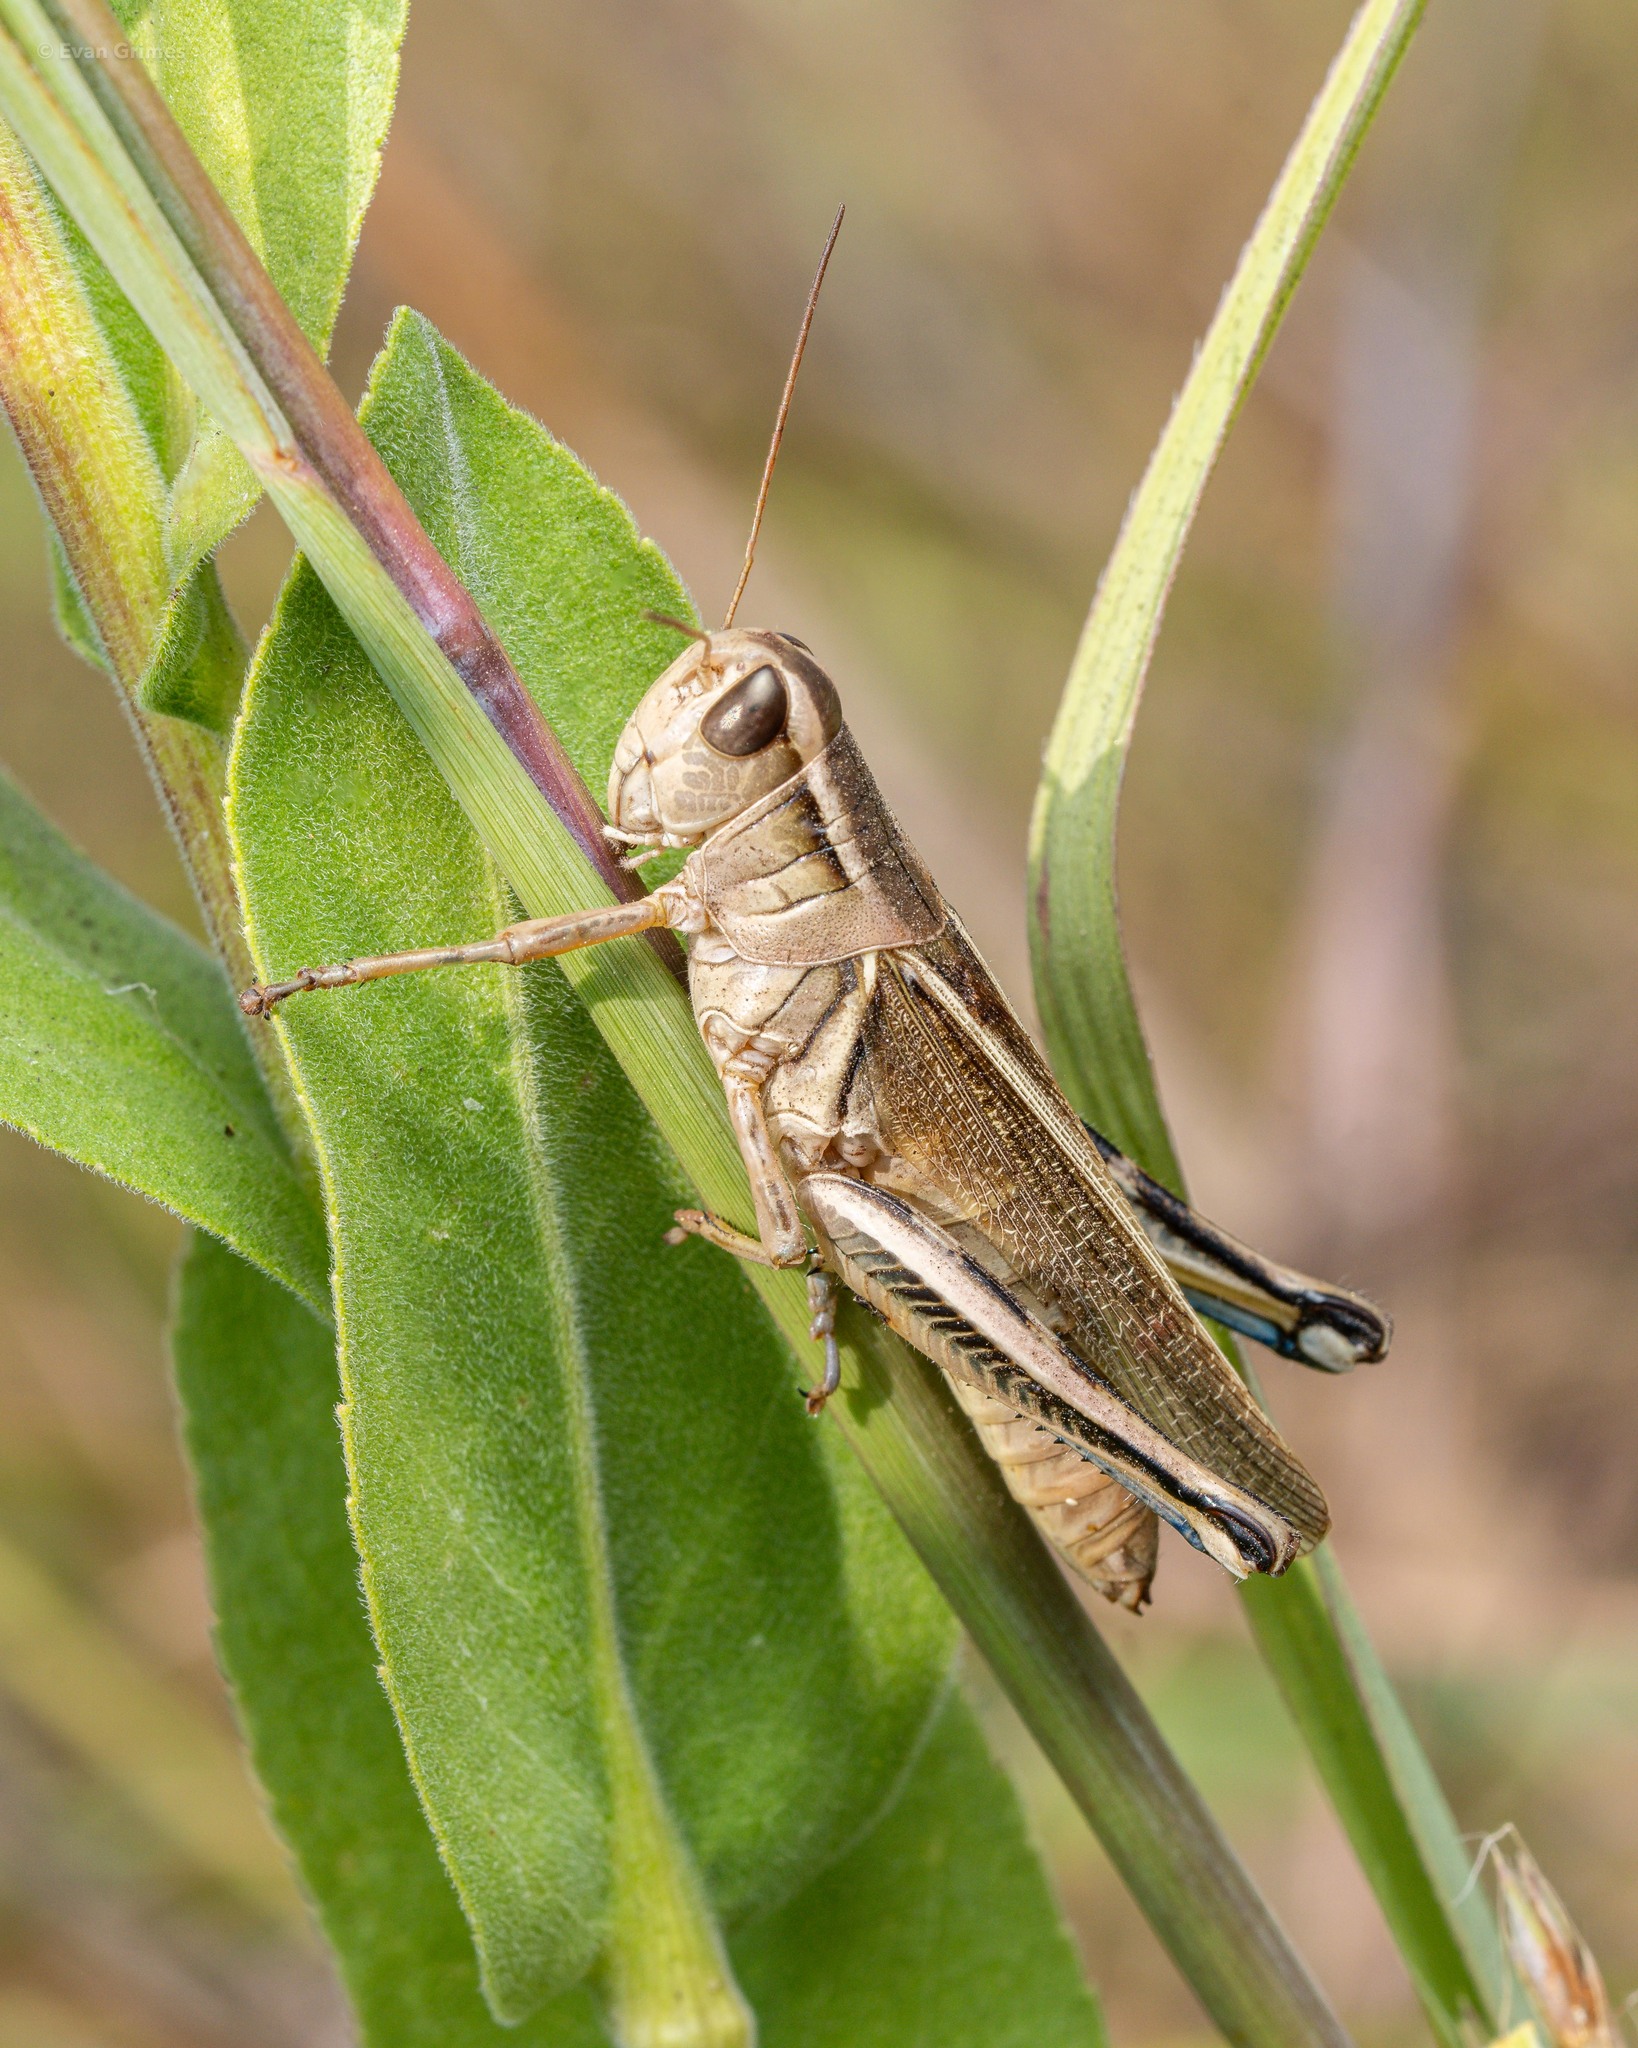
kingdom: Animalia
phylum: Arthropoda
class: Insecta
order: Orthoptera
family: Acrididae
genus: Melanoplus
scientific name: Melanoplus bivittatus
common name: Two-striped grasshopper
